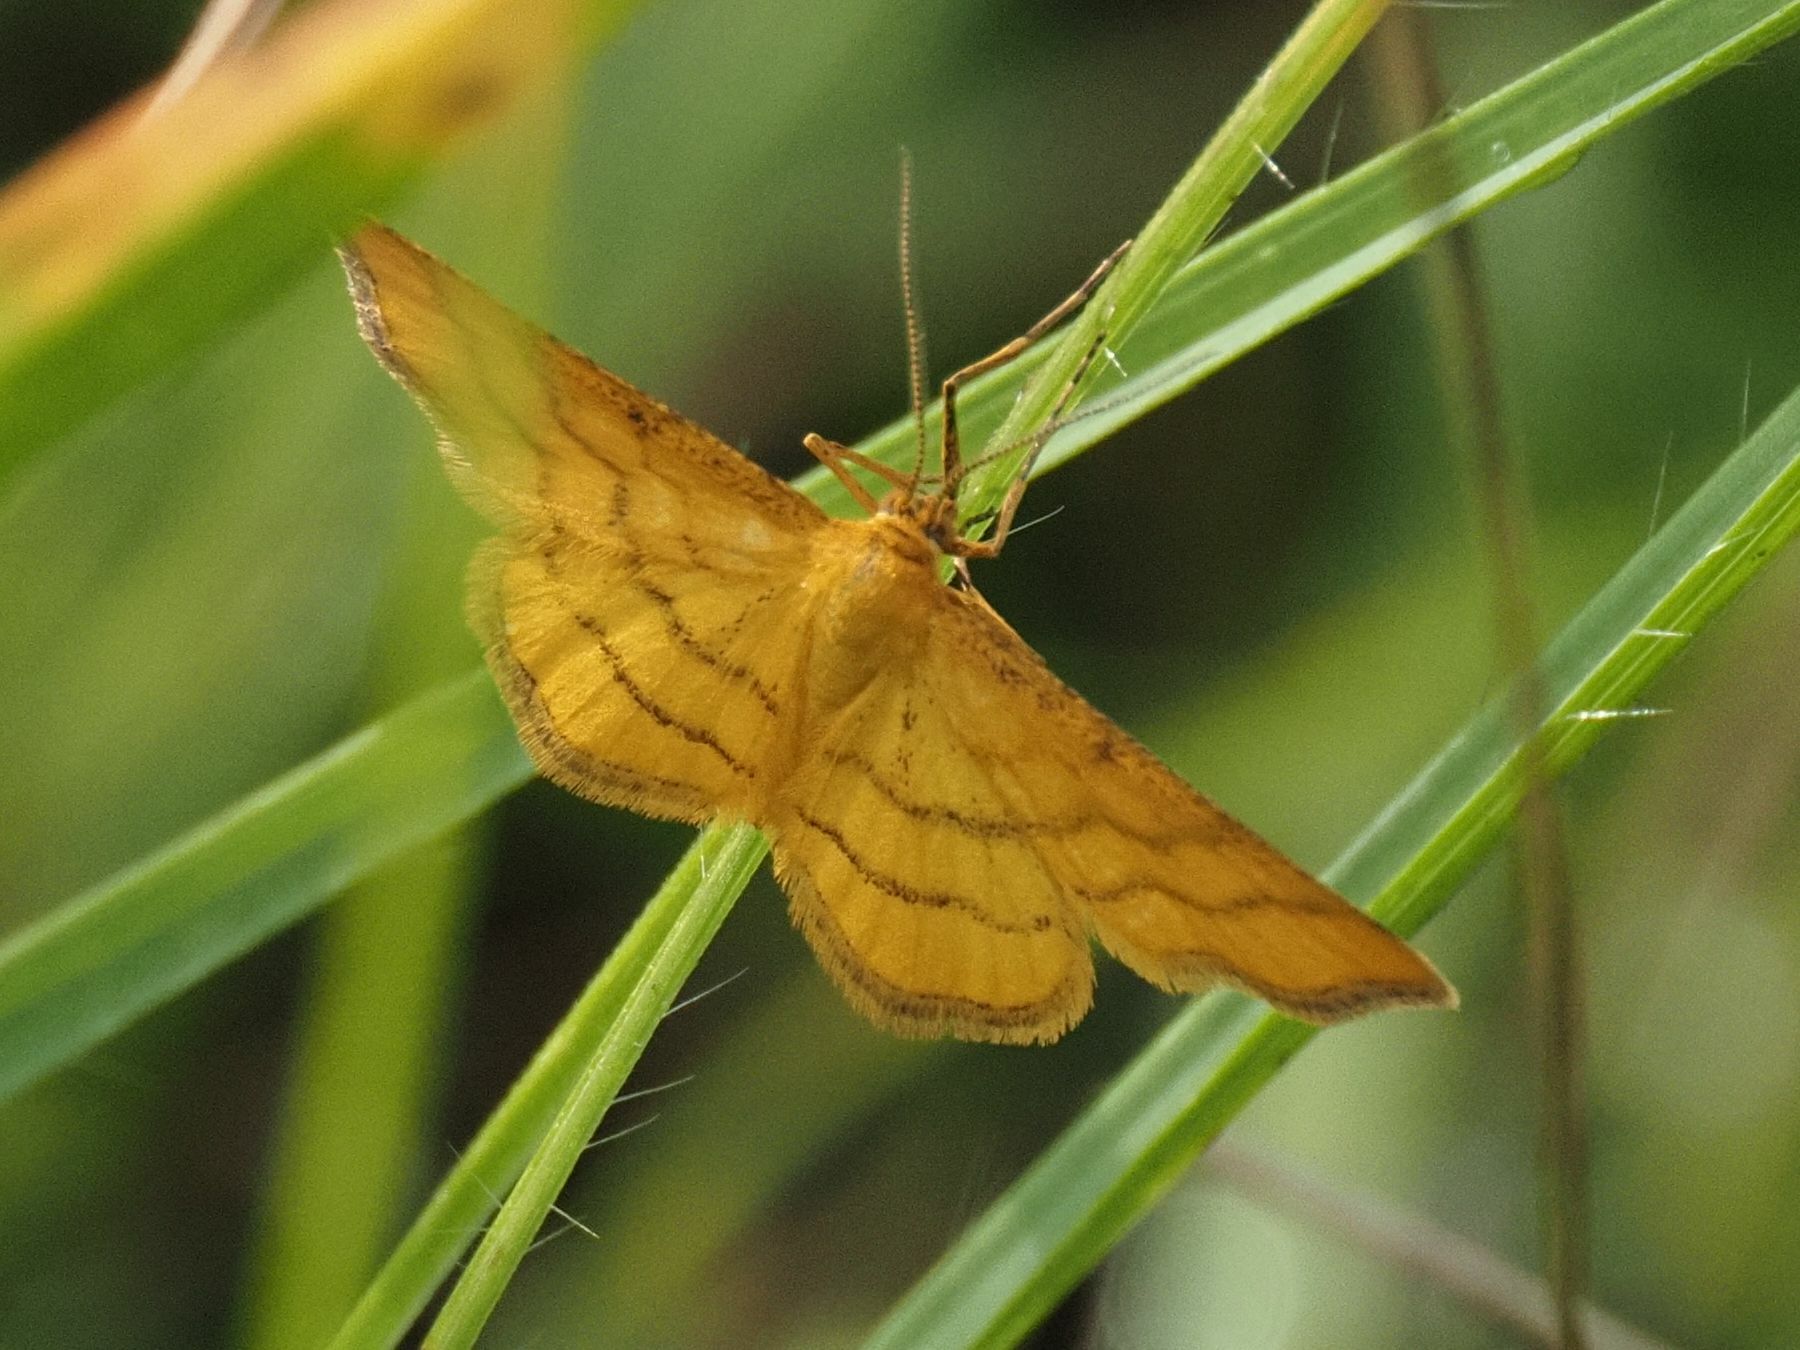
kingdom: Animalia
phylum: Arthropoda
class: Insecta
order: Lepidoptera
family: Geometridae
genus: Idaea
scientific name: Idaea aureolaria
